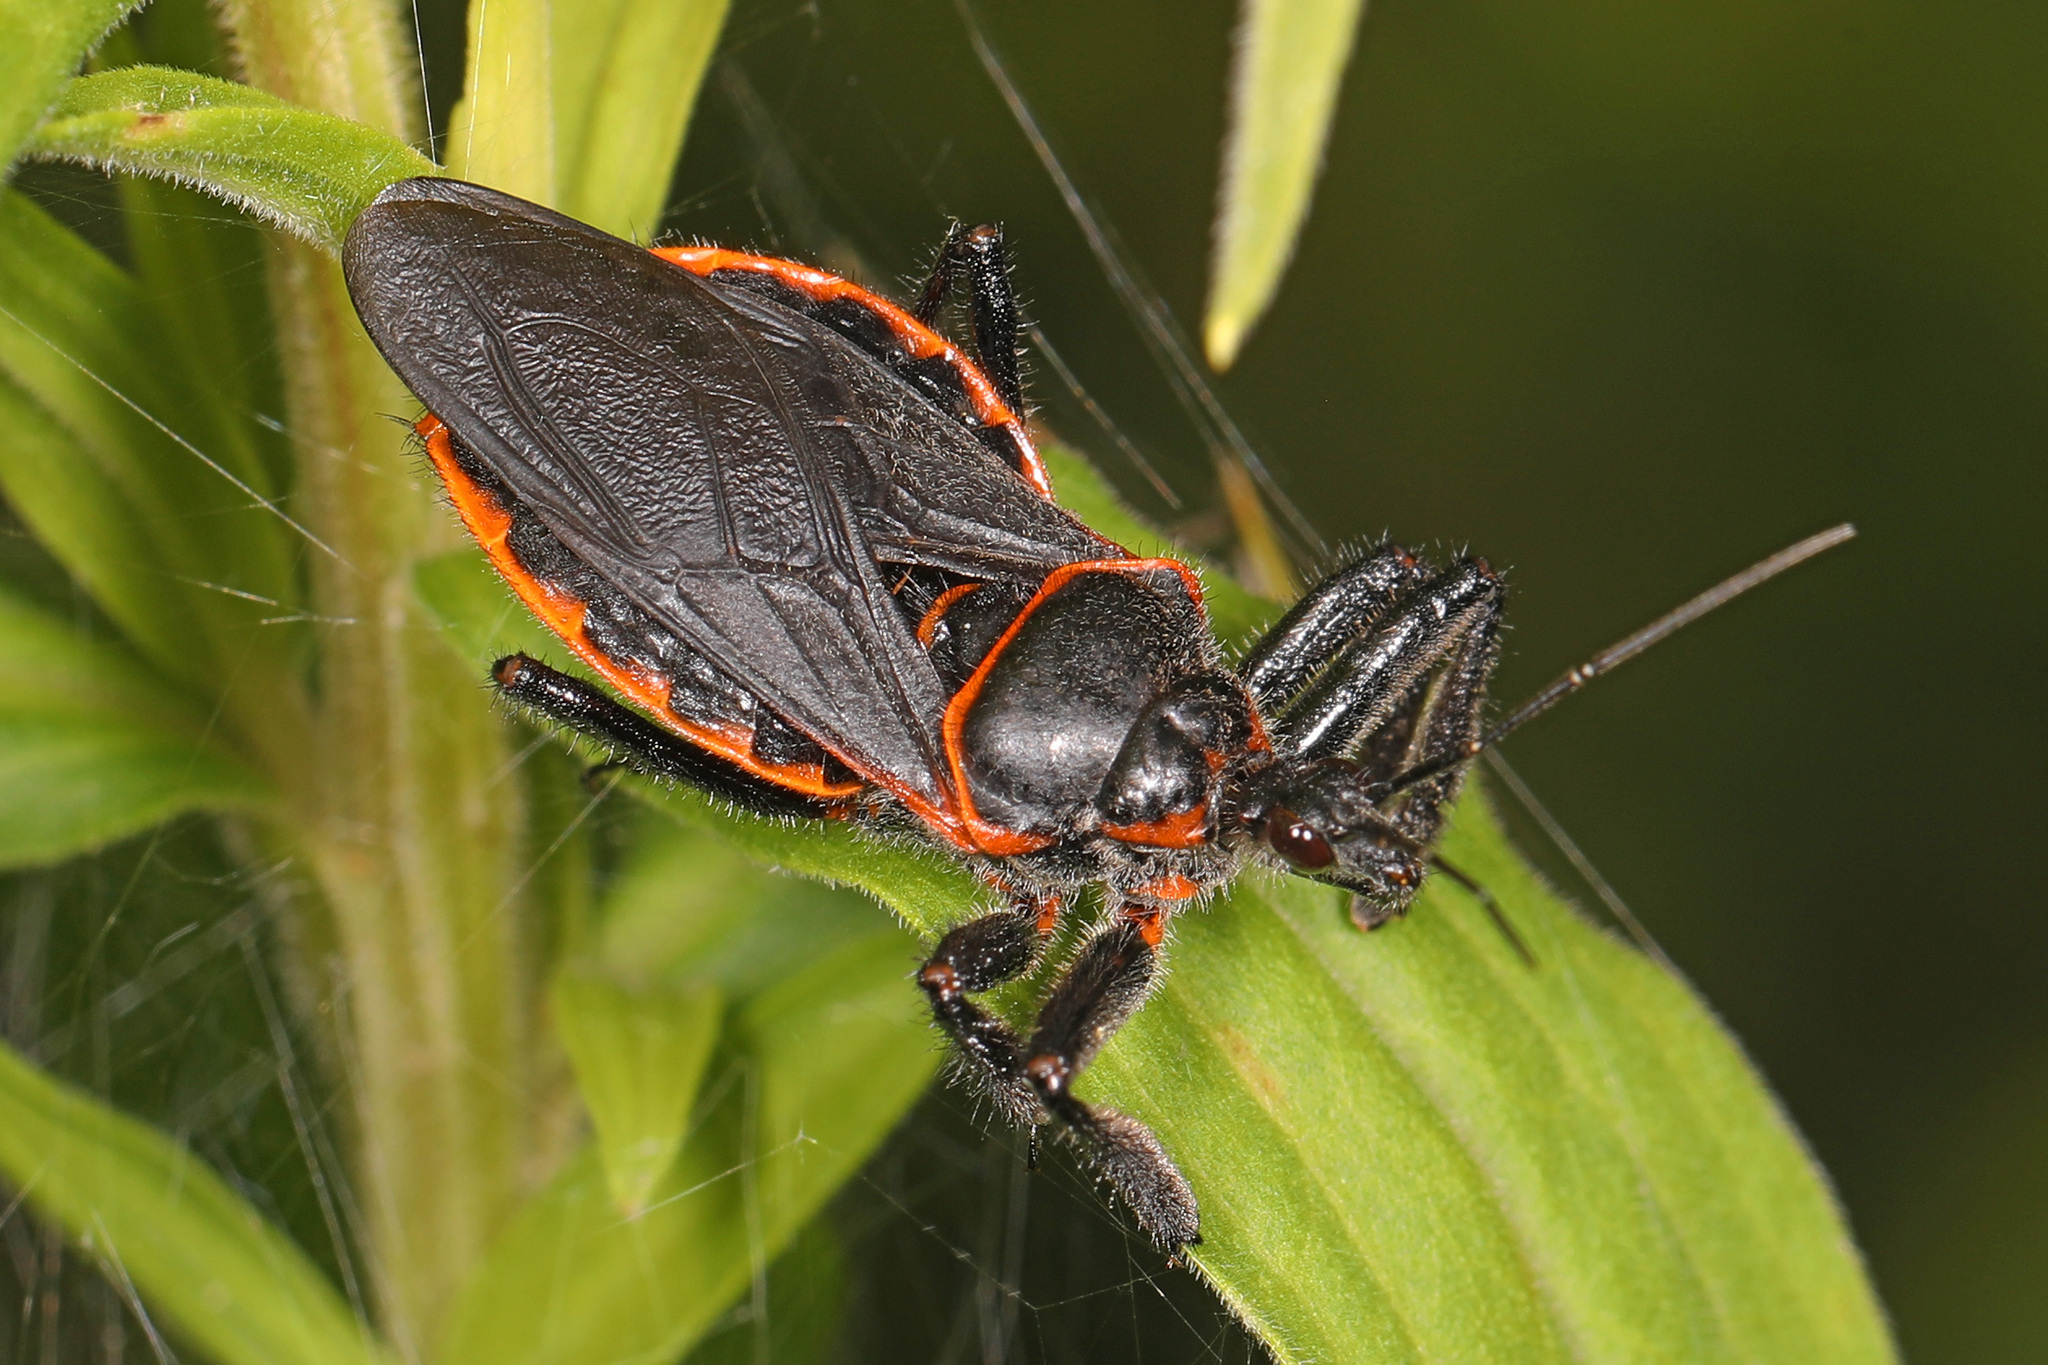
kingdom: Animalia
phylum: Arthropoda
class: Insecta
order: Hemiptera
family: Reduviidae
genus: Apiomerus
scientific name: Apiomerus crassipes
